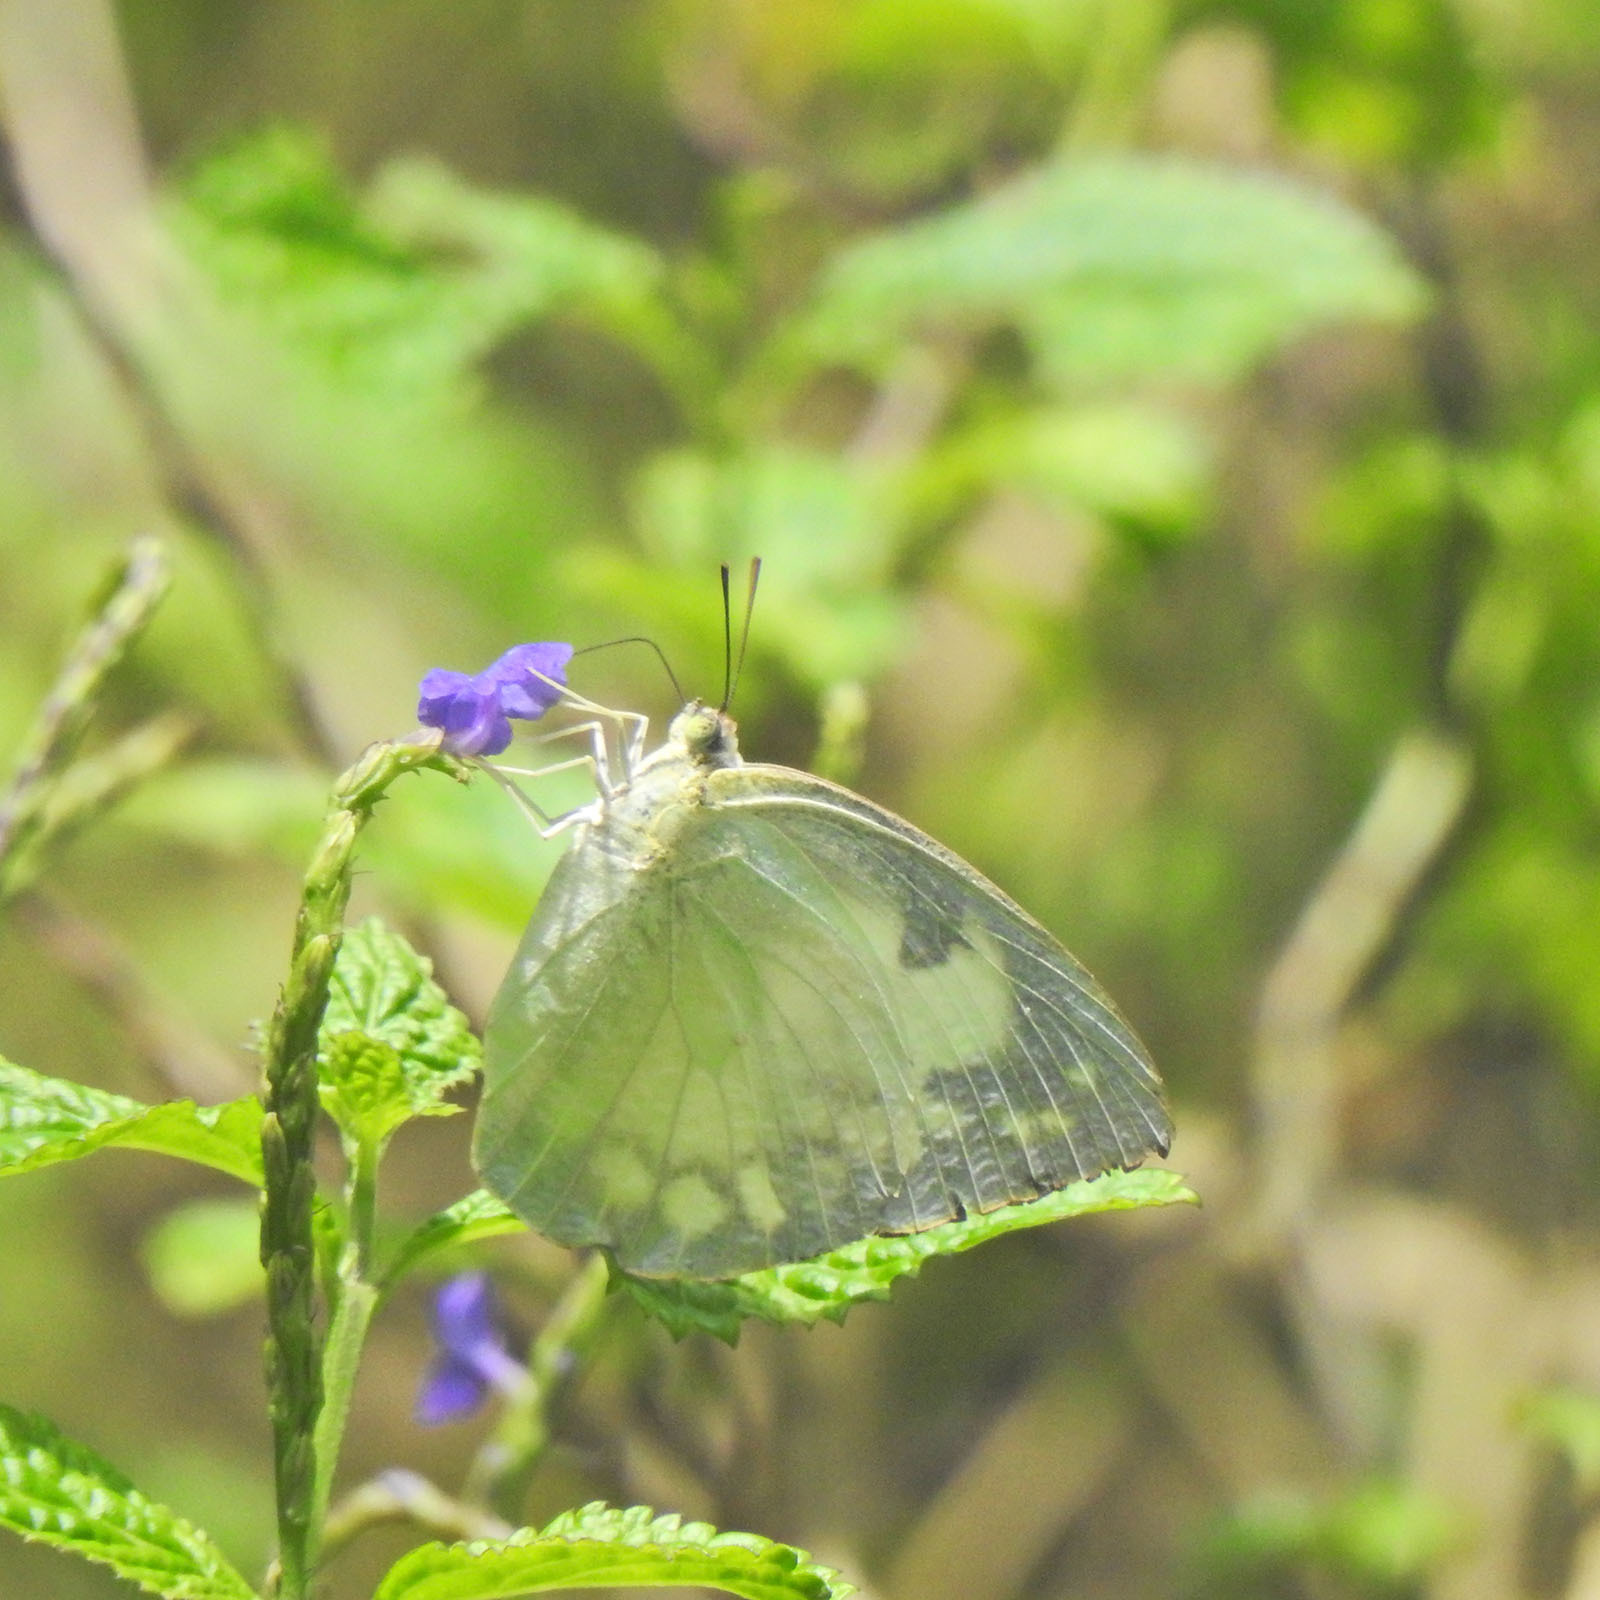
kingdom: Animalia
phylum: Arthropoda
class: Insecta
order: Lepidoptera
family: Pieridae
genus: Catopsilia
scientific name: Catopsilia pomona
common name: Common emigrant
